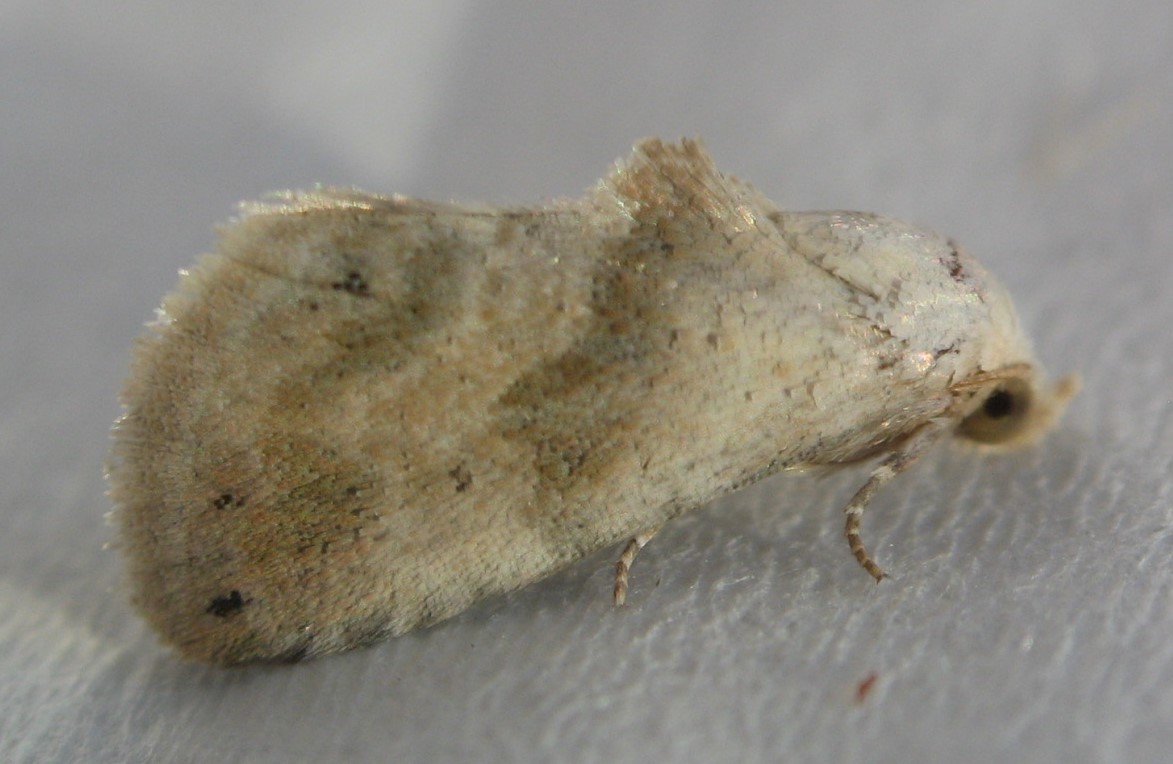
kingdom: Animalia
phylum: Arthropoda
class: Insecta
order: Lepidoptera
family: Noctuidae
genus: Eublemma
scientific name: Eublemma minima
